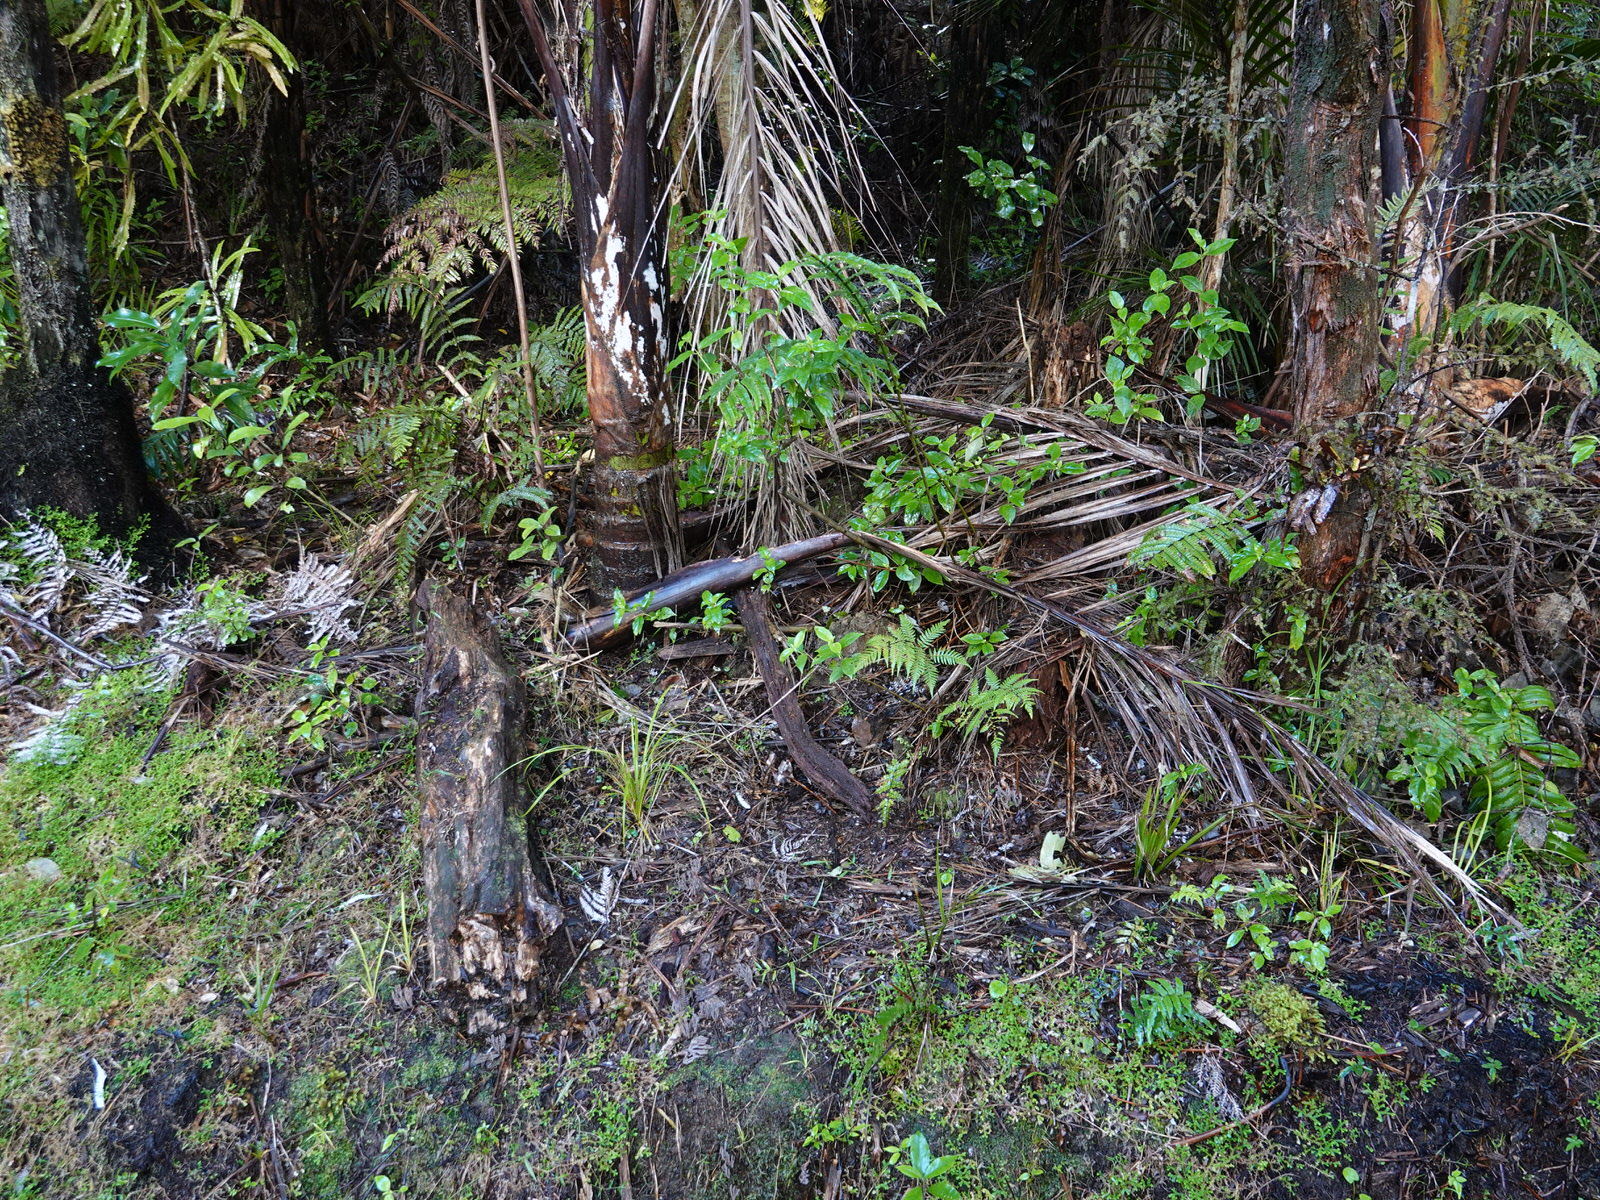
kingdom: Fungi
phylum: Basidiomycota
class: Agaricomycetes
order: Agaricales
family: Agaricaceae
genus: Cyathus
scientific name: Cyathus striatus
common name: Fluted bird's nest
